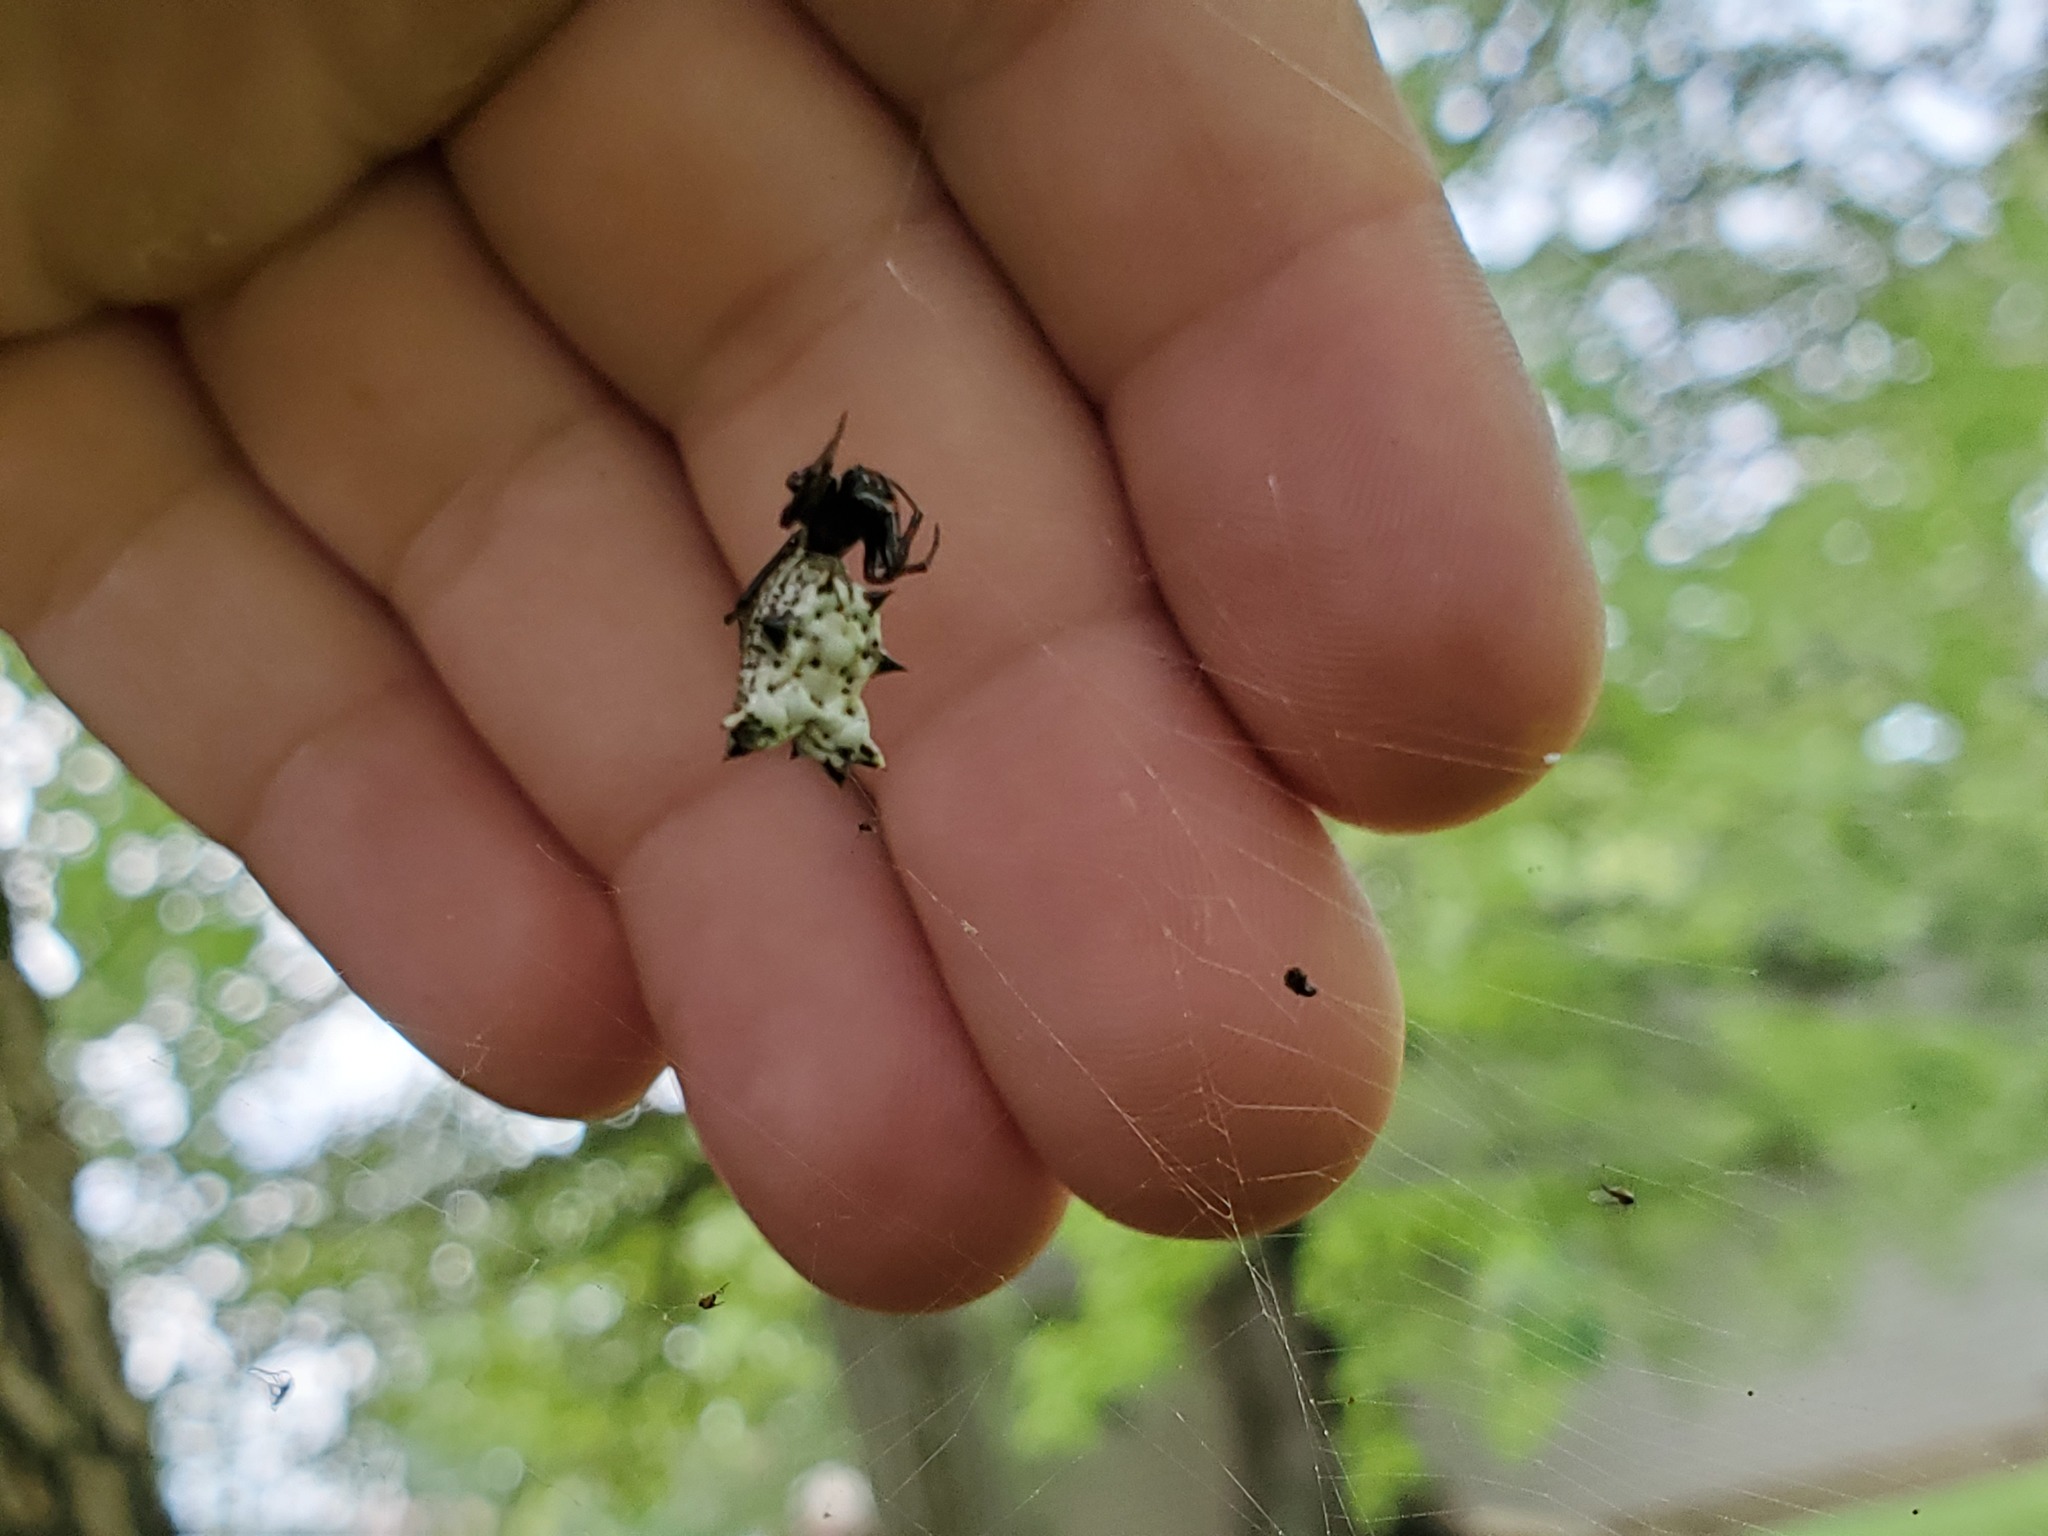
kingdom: Animalia
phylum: Arthropoda
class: Arachnida
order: Araneae
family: Araneidae
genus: Micrathena
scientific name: Micrathena gracilis
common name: Orb weavers
